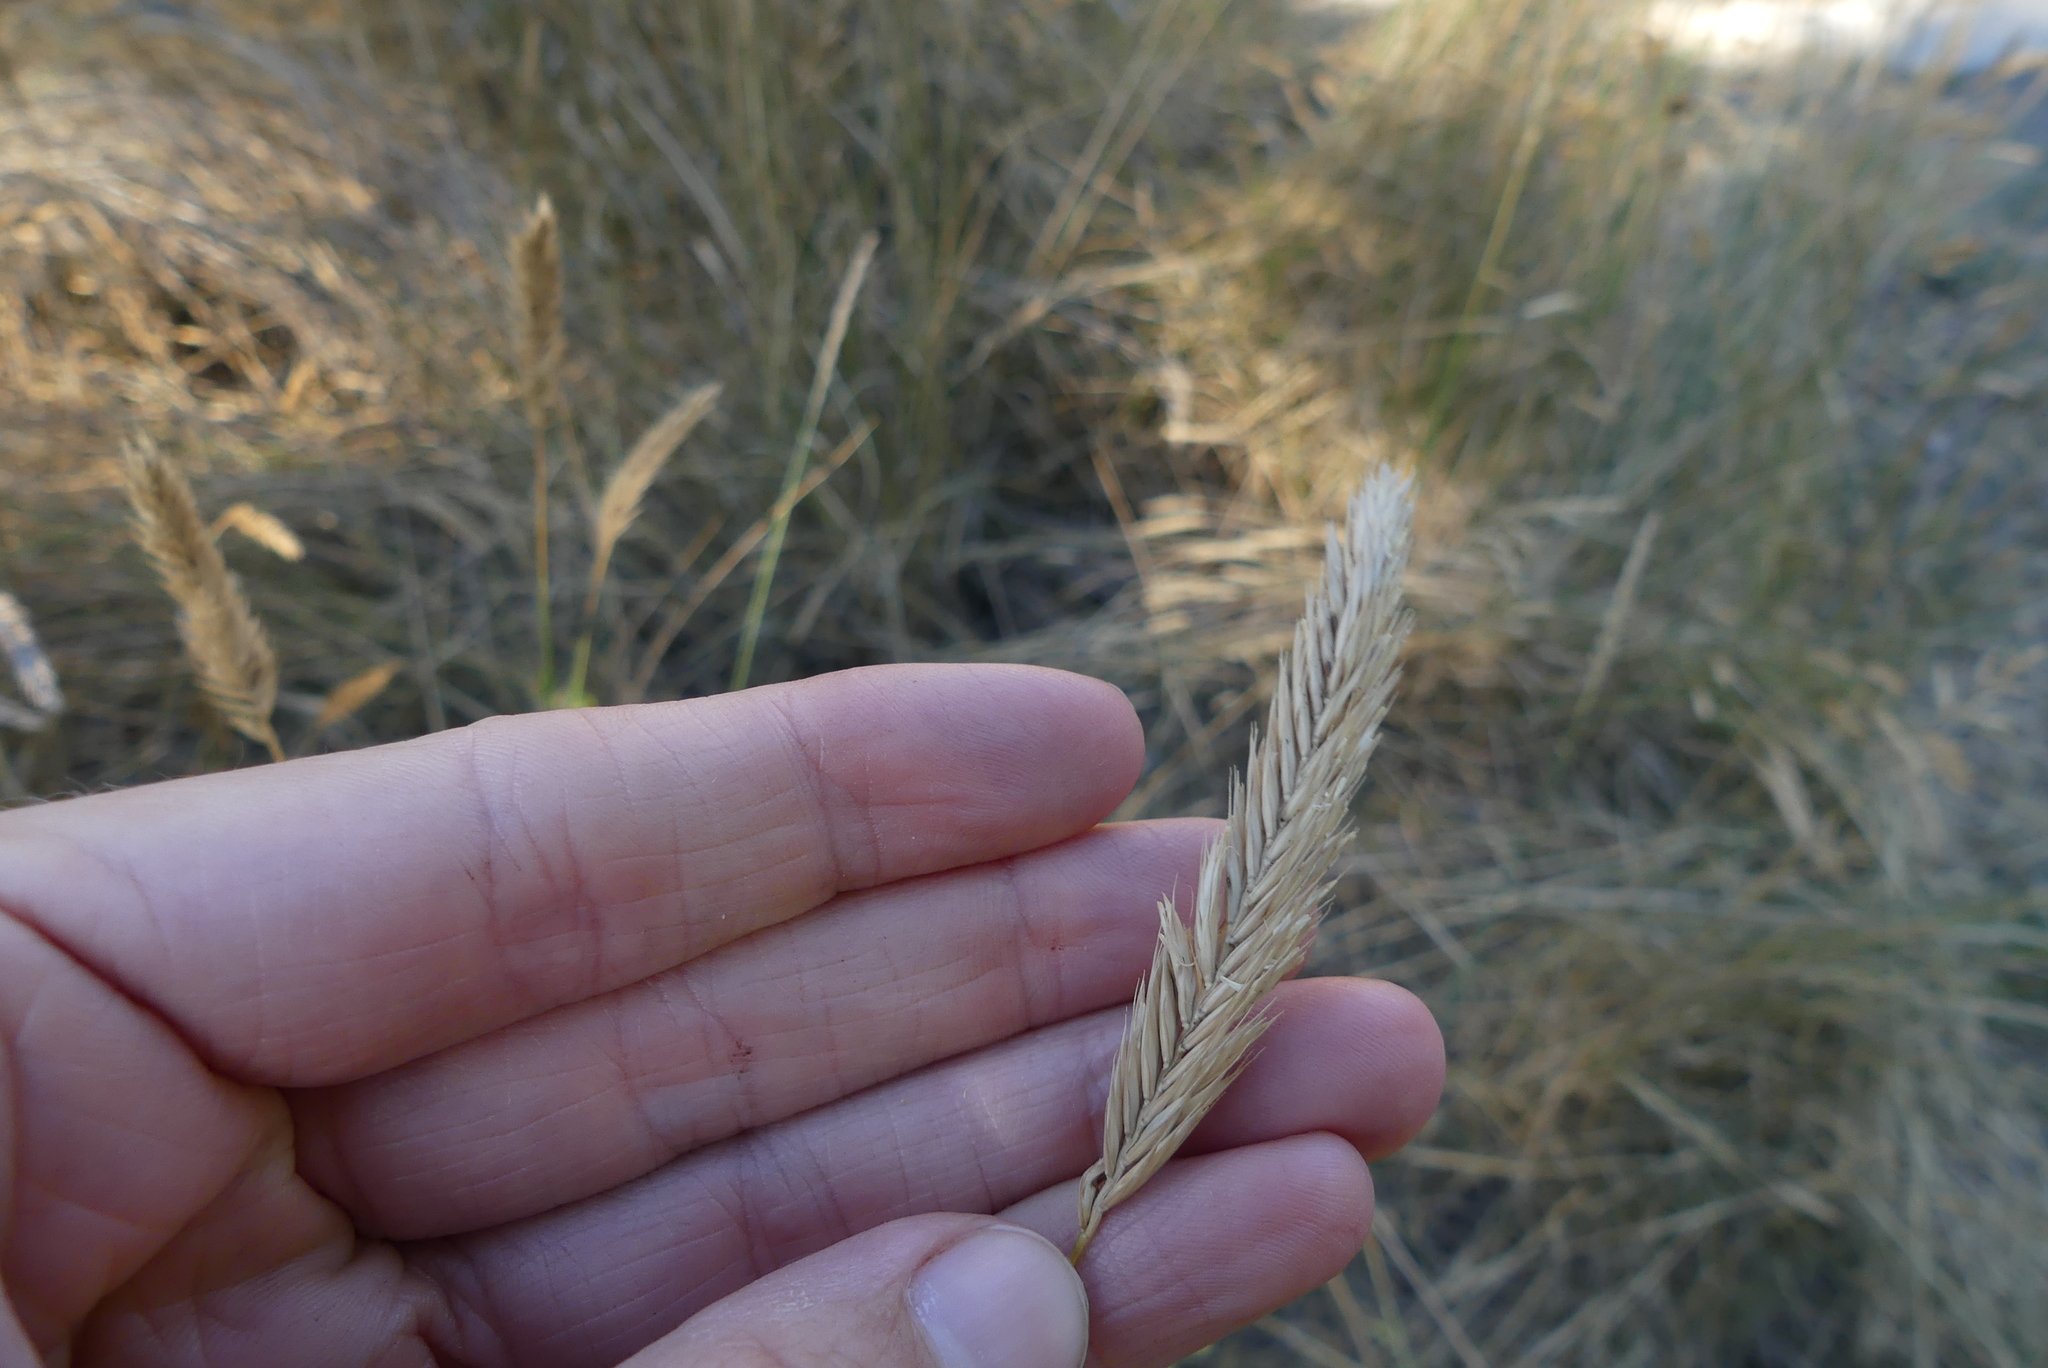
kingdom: Plantae
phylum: Tracheophyta
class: Liliopsida
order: Poales
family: Poaceae
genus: Agropyron
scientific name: Agropyron cristatum
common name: Crested wheatgrass
